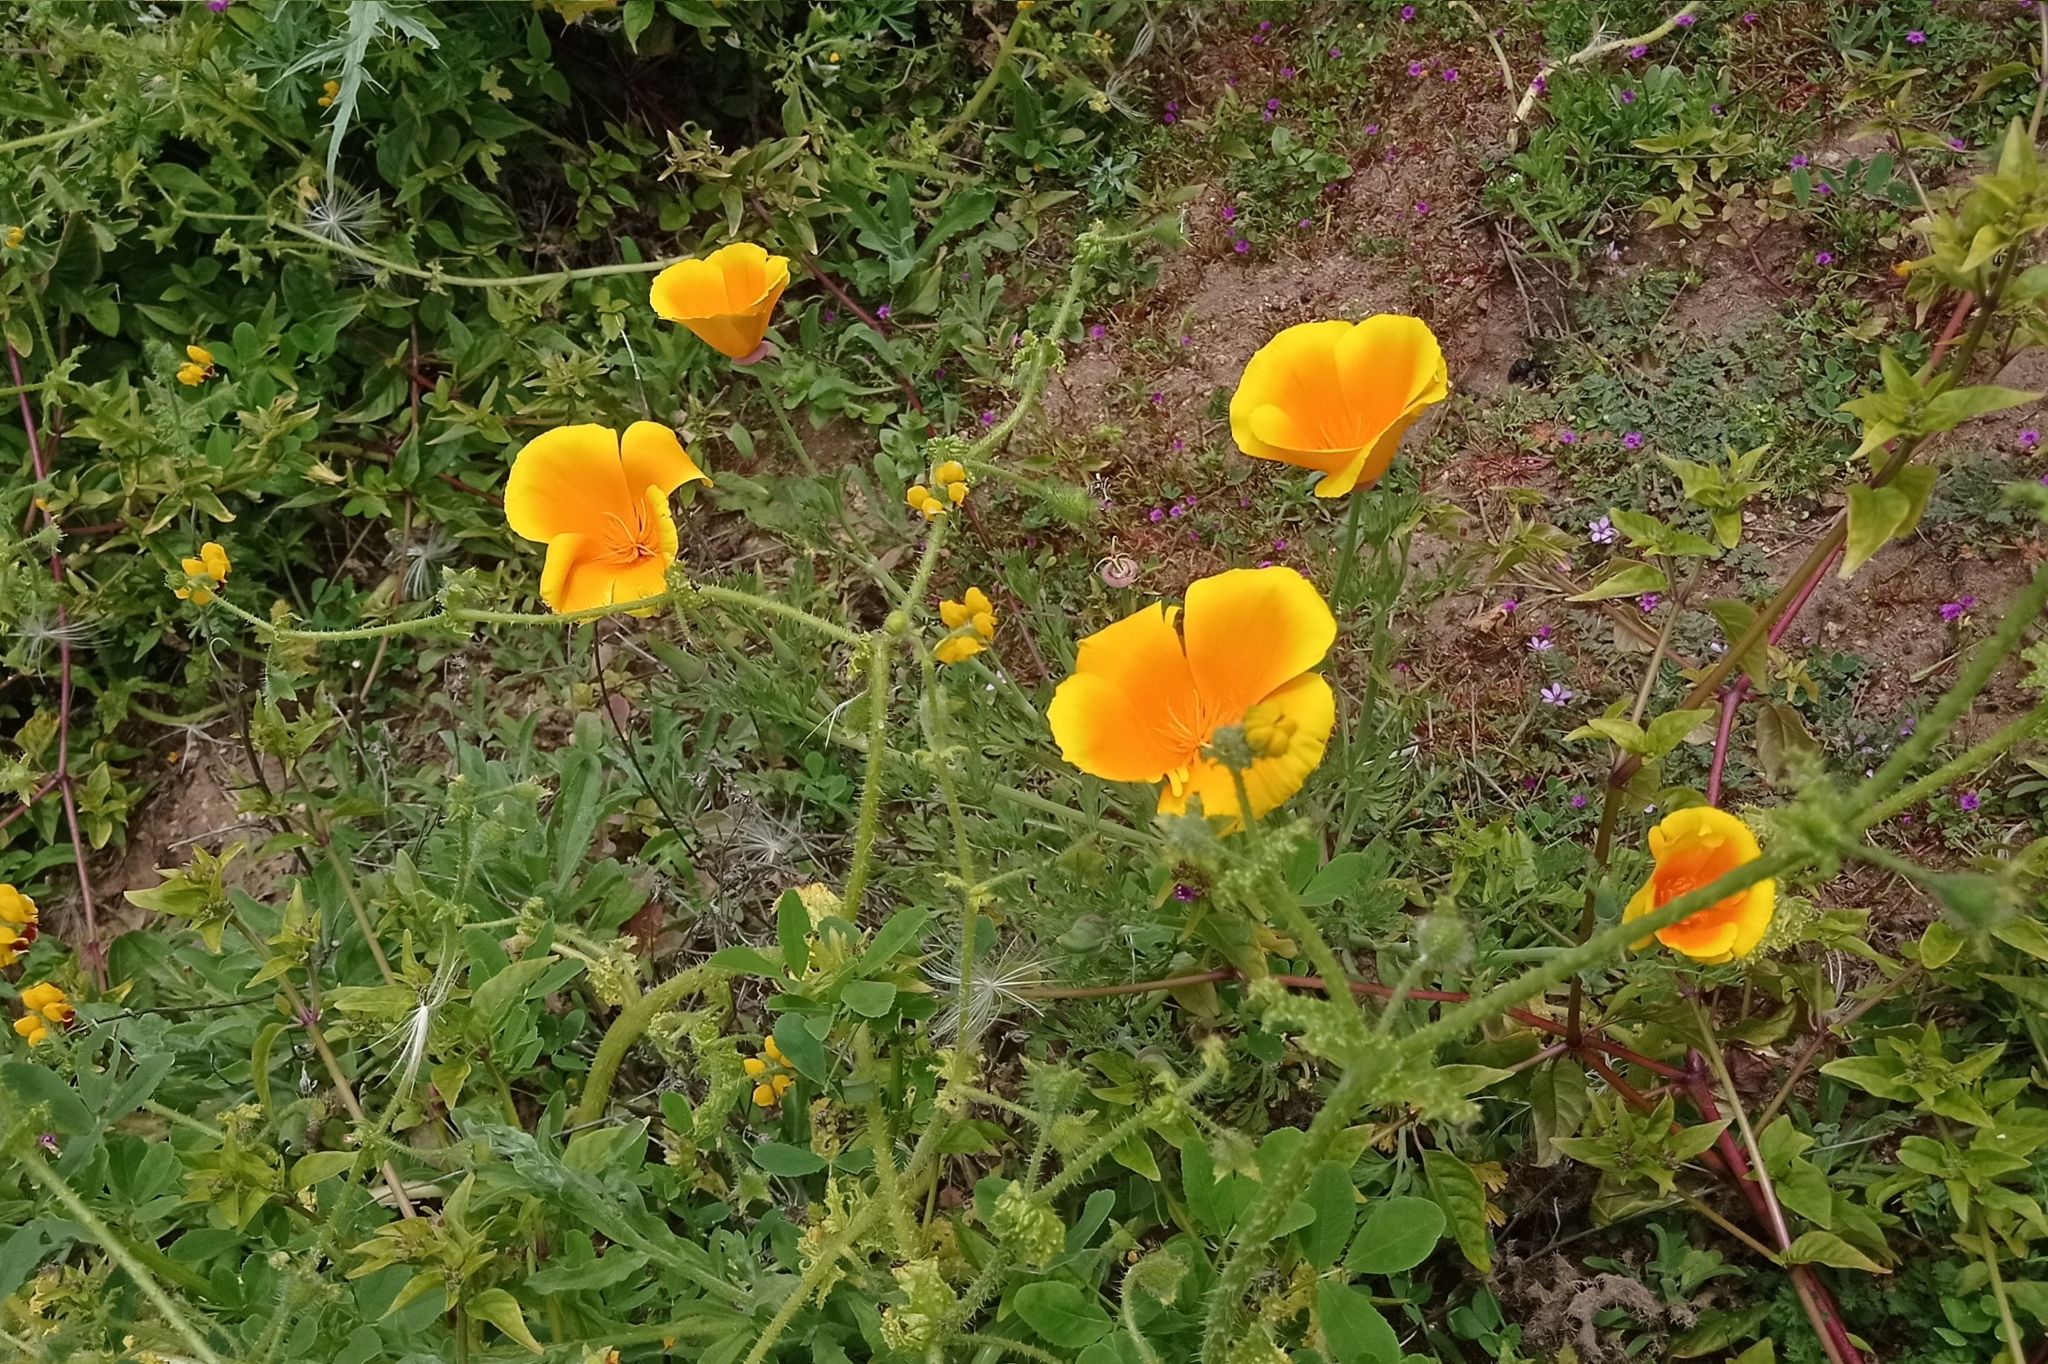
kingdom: Plantae
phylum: Tracheophyta
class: Magnoliopsida
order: Ranunculales
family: Papaveraceae
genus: Eschscholzia
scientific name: Eschscholzia californica
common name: California poppy
